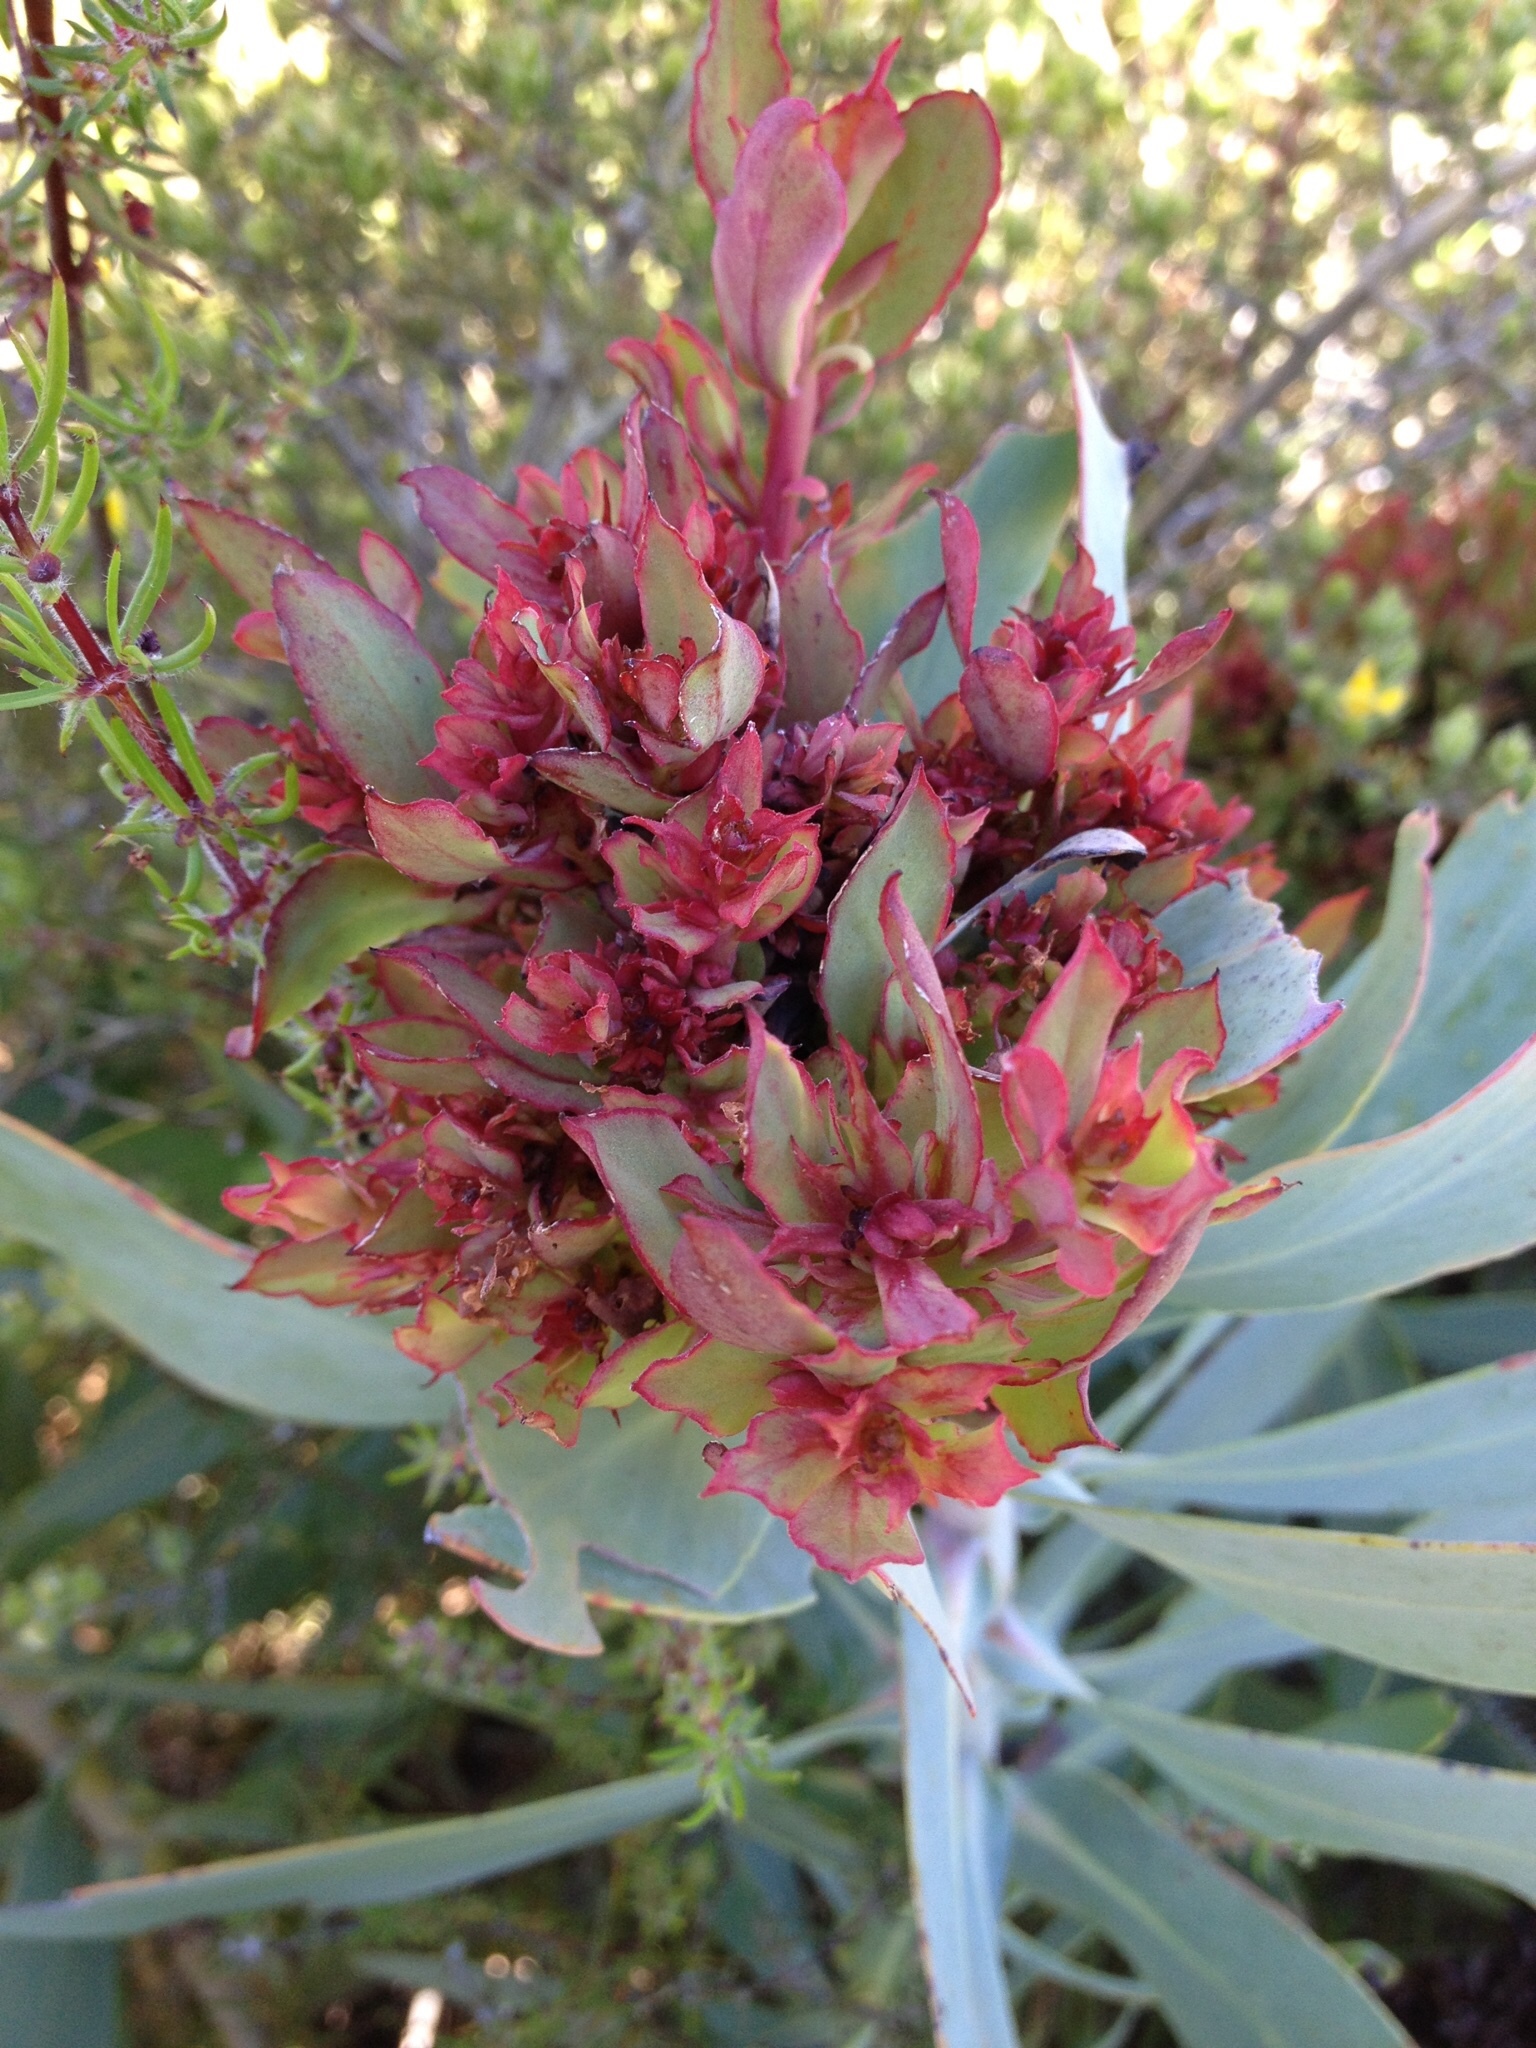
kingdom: Bacteria
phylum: Firmicutes
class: Bacilli
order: Acholeplasmatales
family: Acholeplasmataceae
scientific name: Acholeplasmataceae
